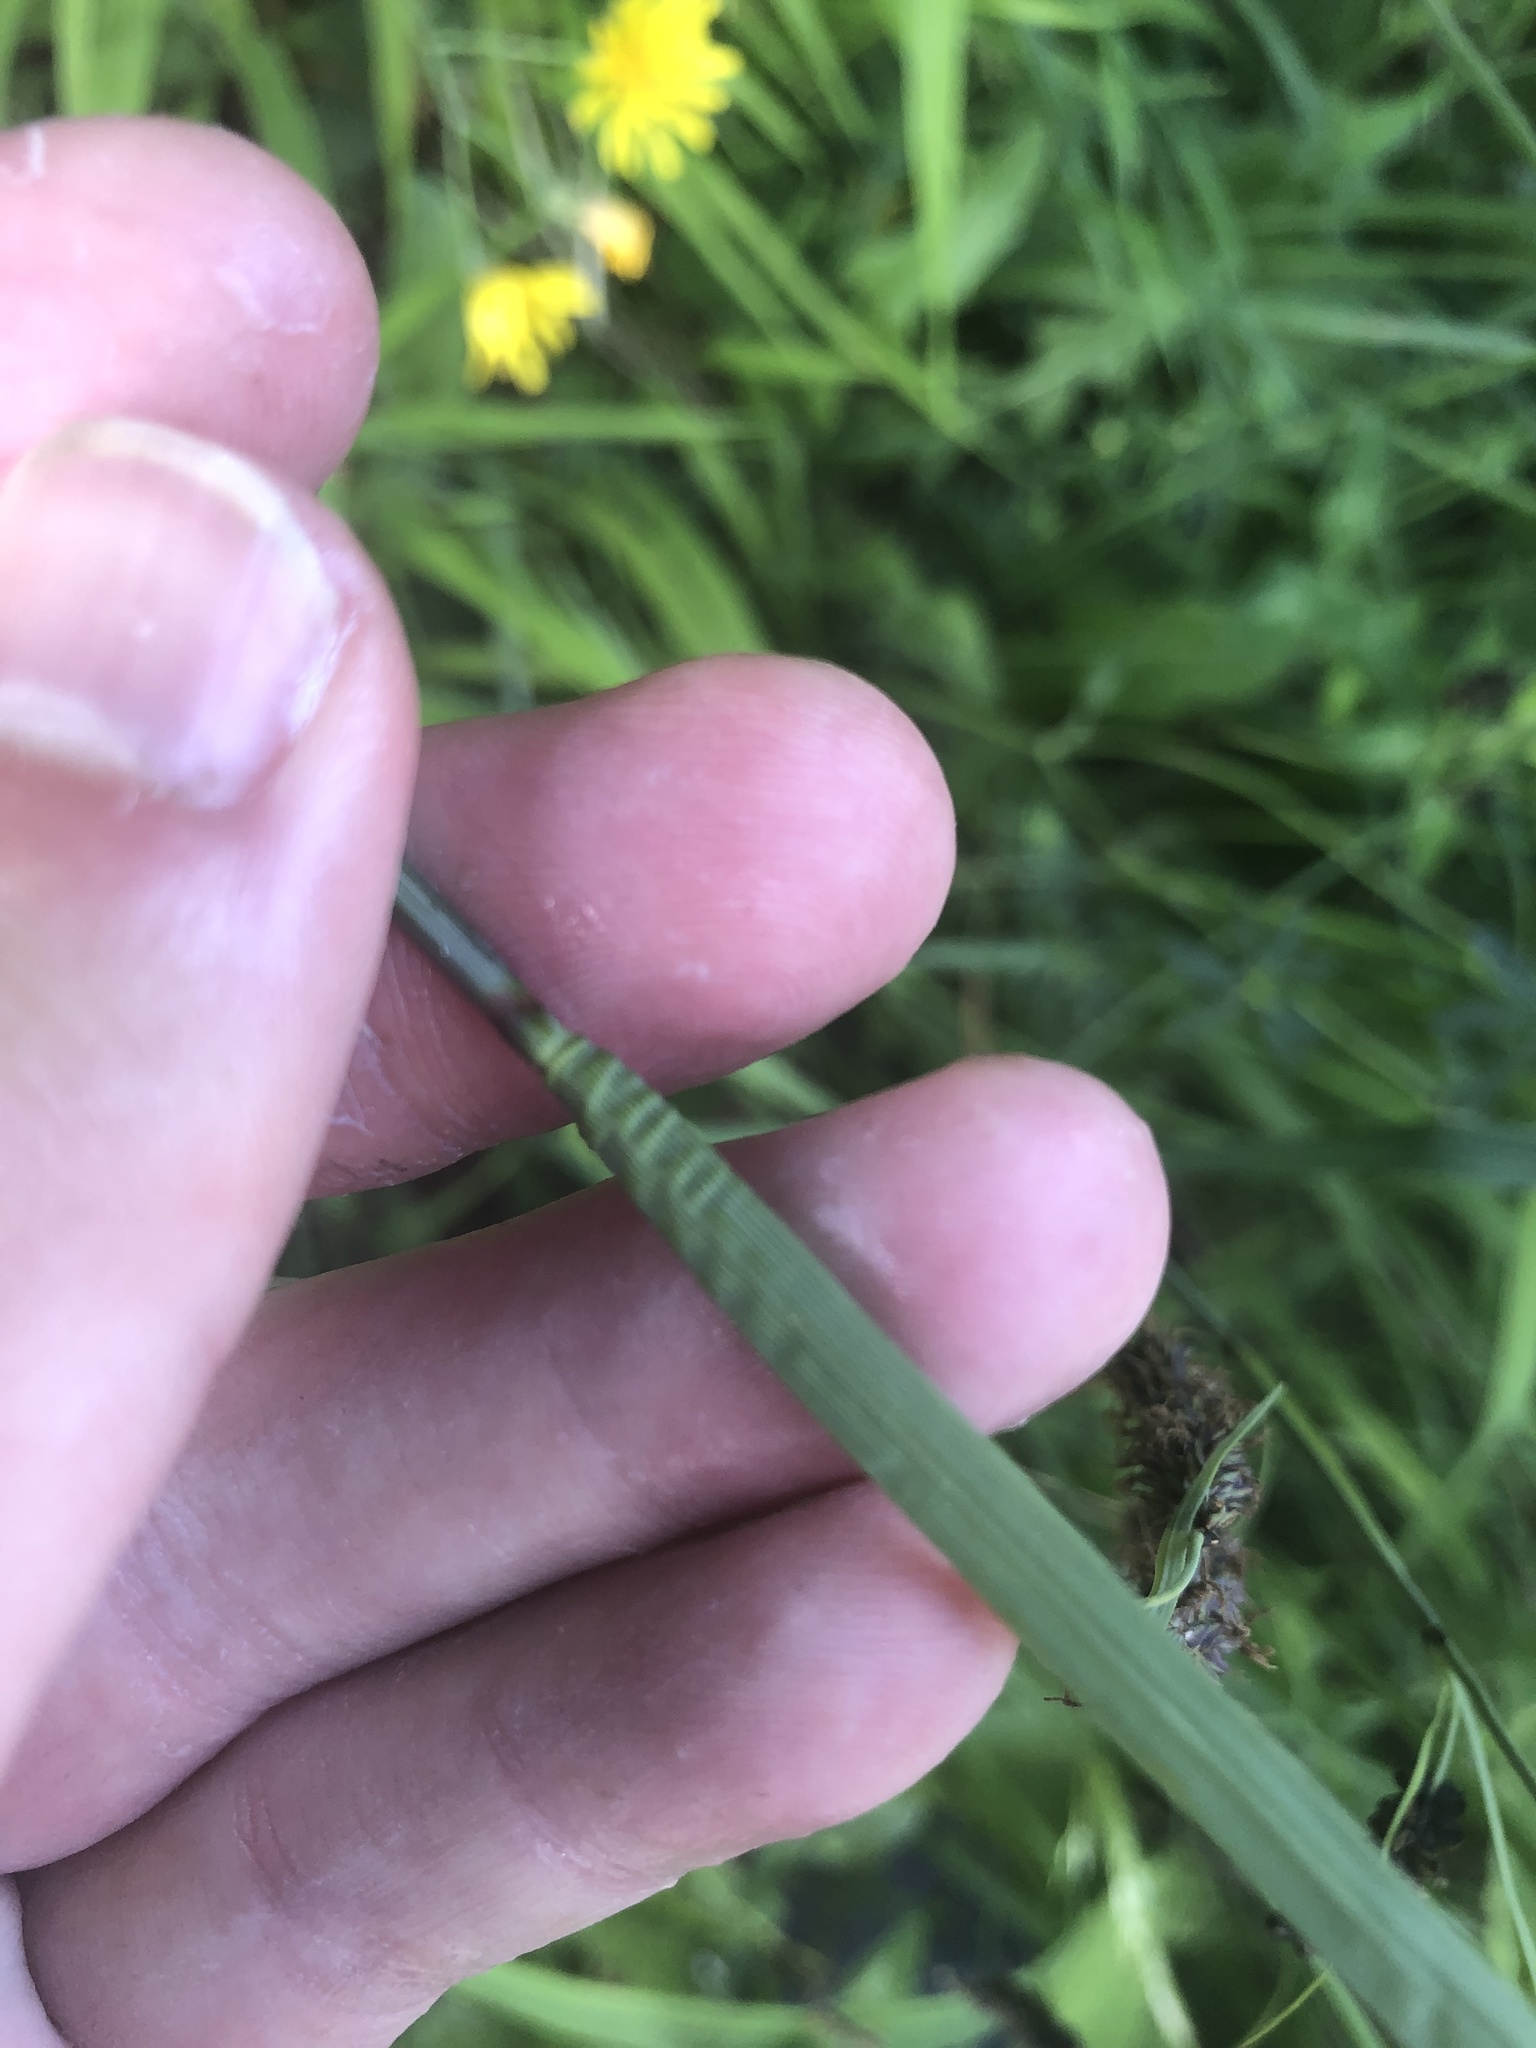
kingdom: Plantae
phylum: Tracheophyta
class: Liliopsida
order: Poales
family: Cyperaceae
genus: Carex
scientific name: Carex flacca
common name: Glaucous sedge
